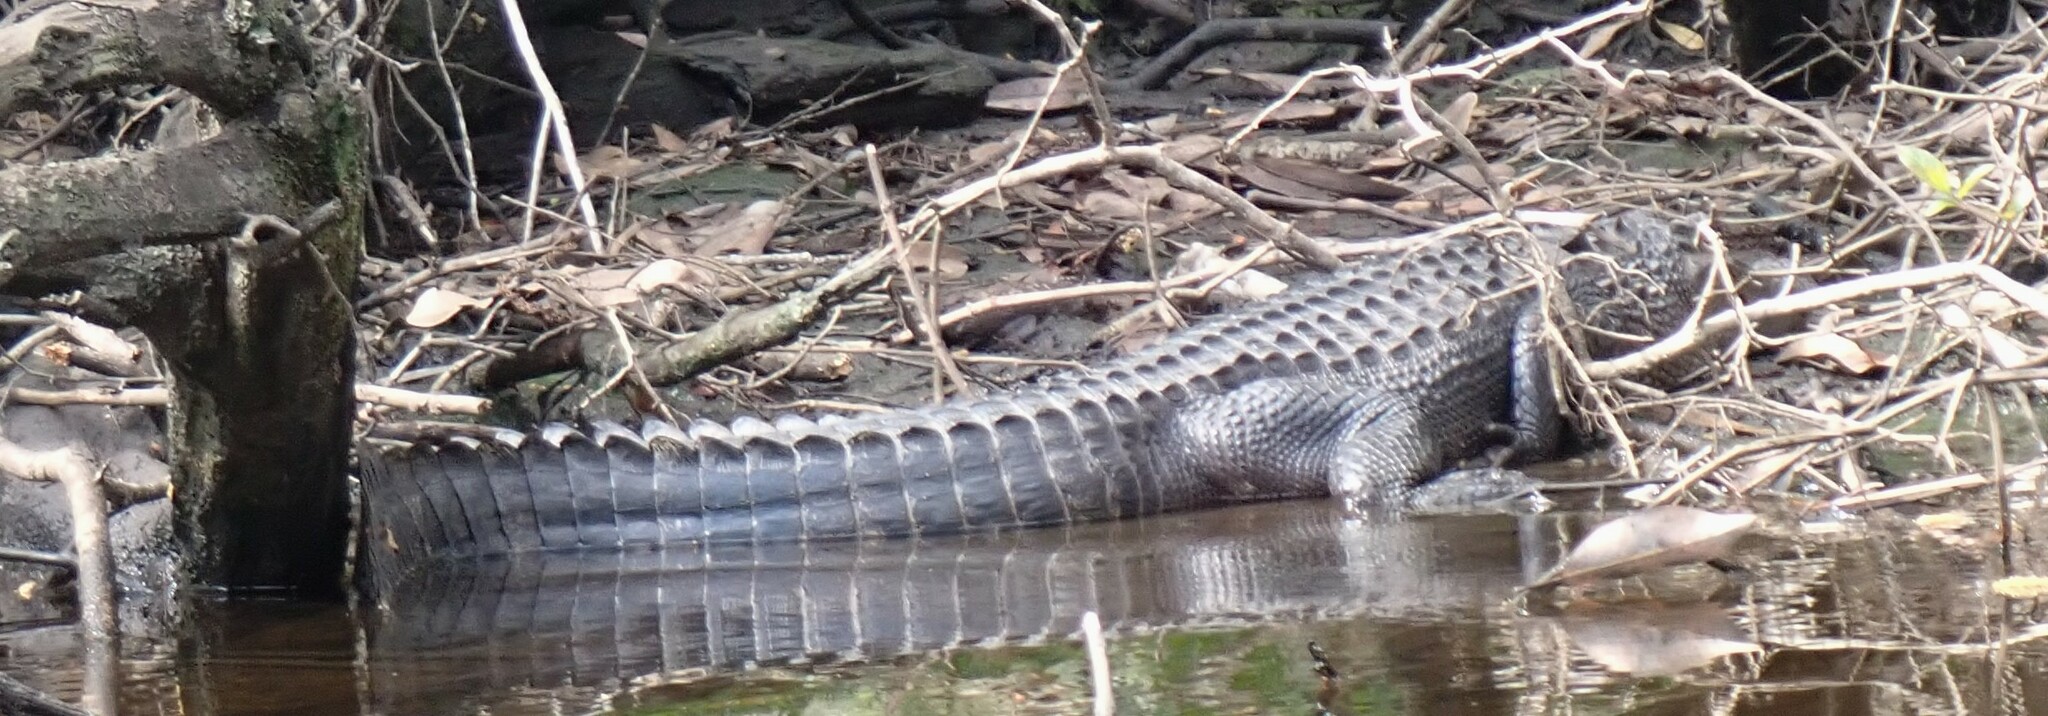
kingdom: Animalia
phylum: Chordata
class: Crocodylia
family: Alligatoridae
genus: Alligator
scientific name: Alligator mississippiensis
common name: American alligator
